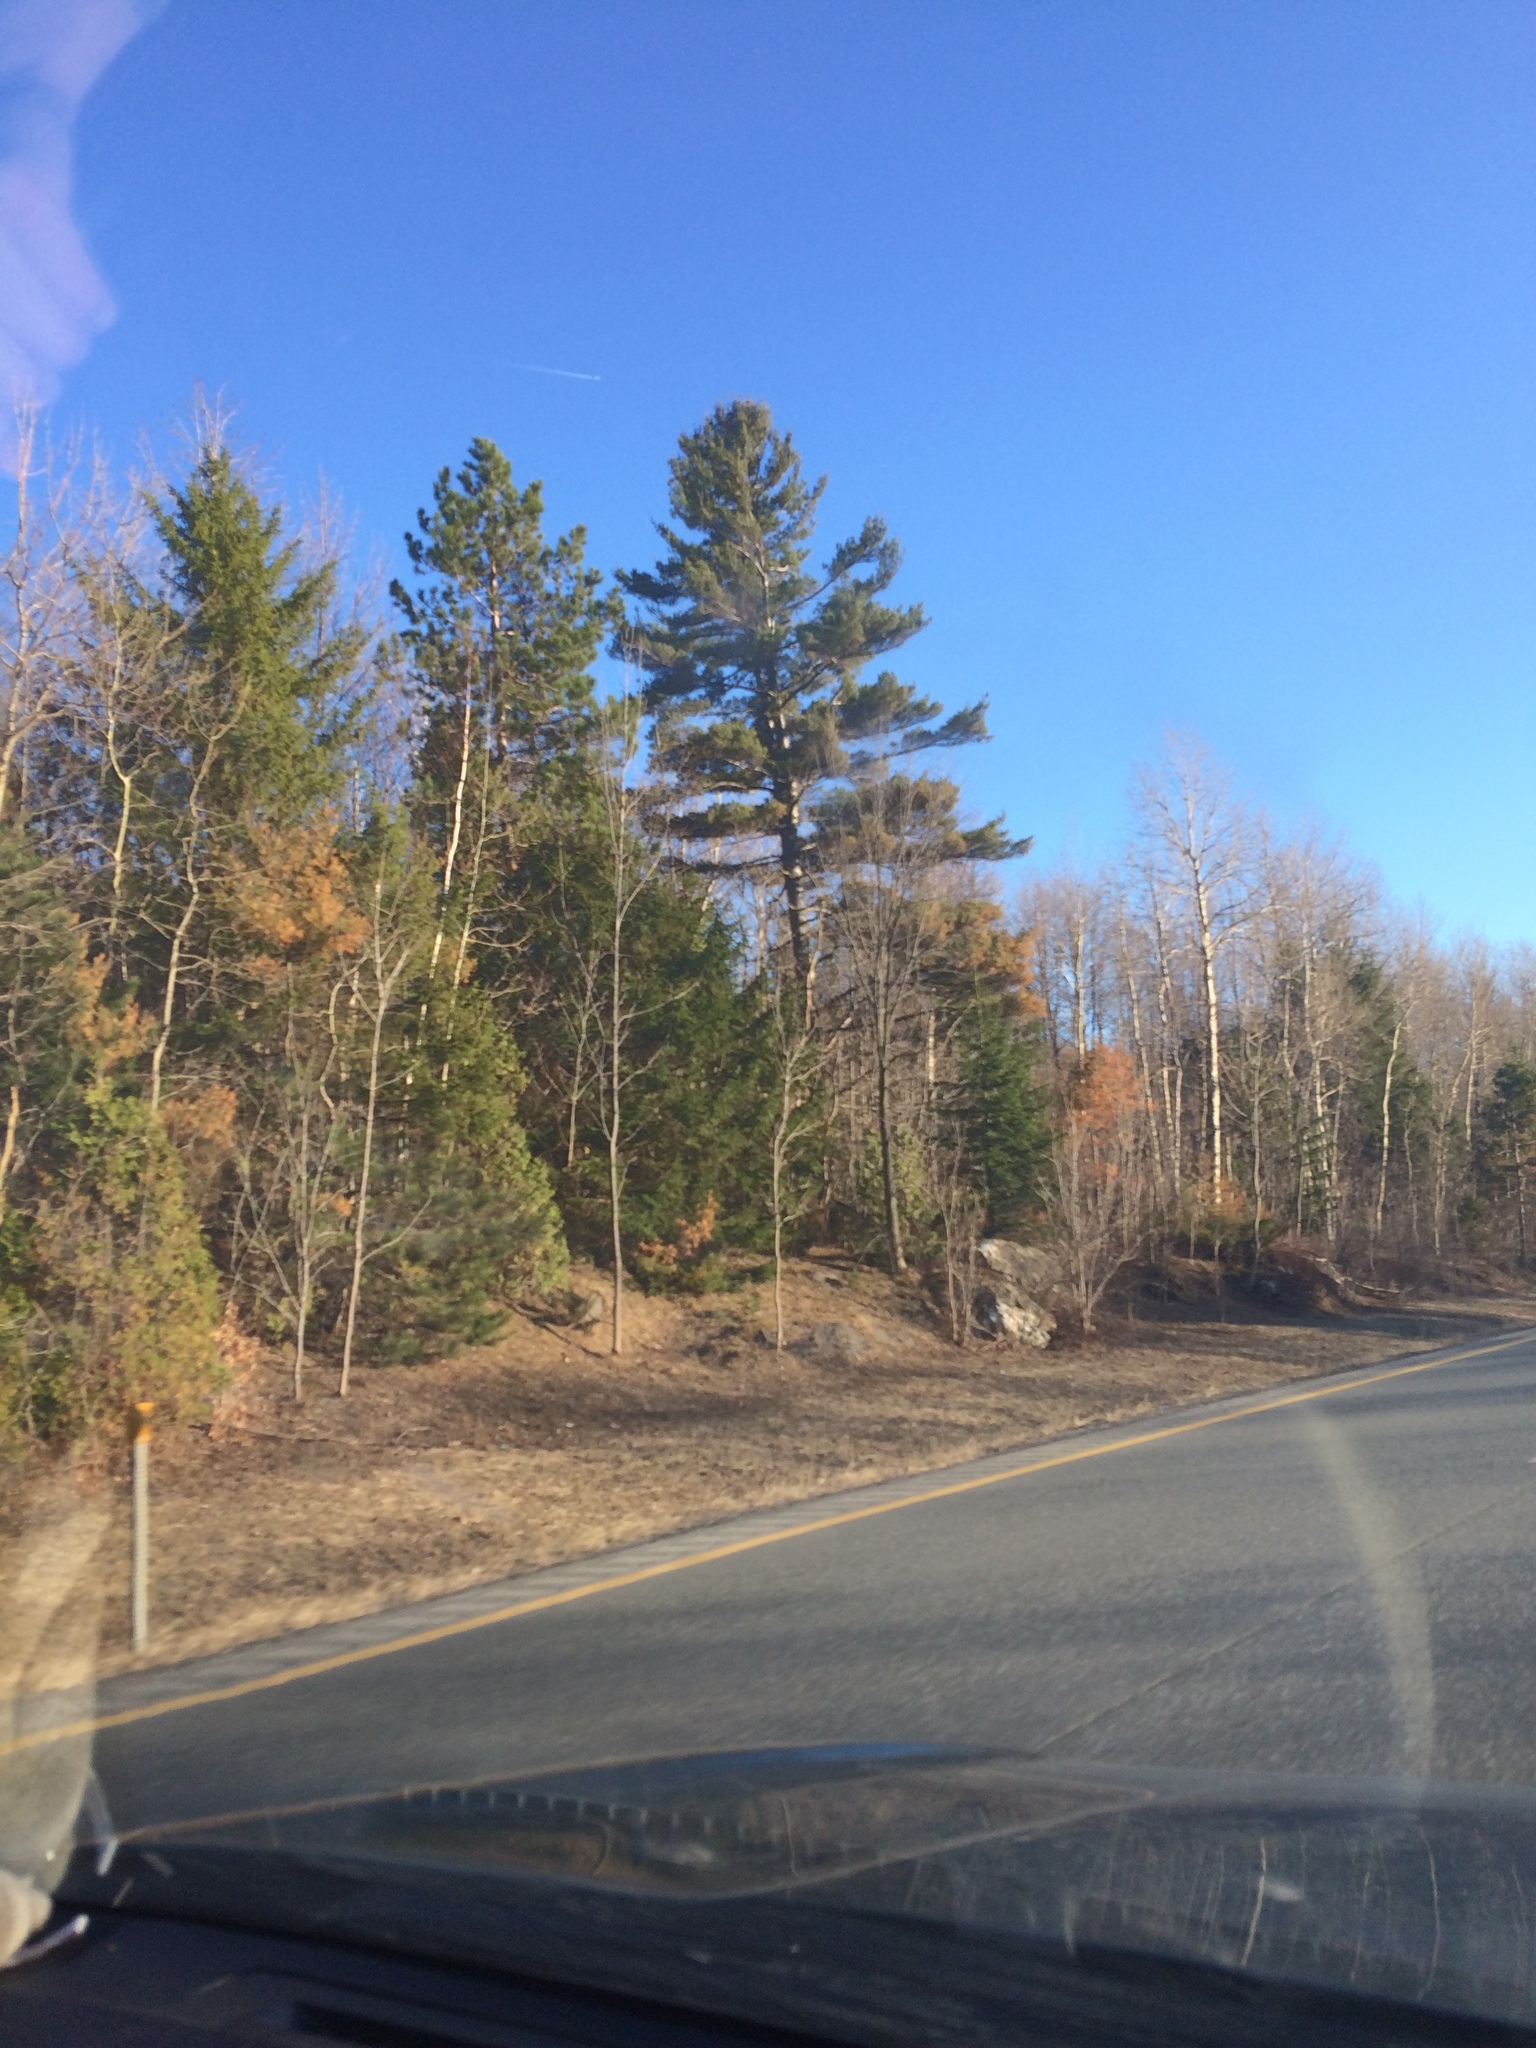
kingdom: Plantae
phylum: Tracheophyta
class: Pinopsida
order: Pinales
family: Pinaceae
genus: Pinus
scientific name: Pinus strobus
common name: Weymouth pine
